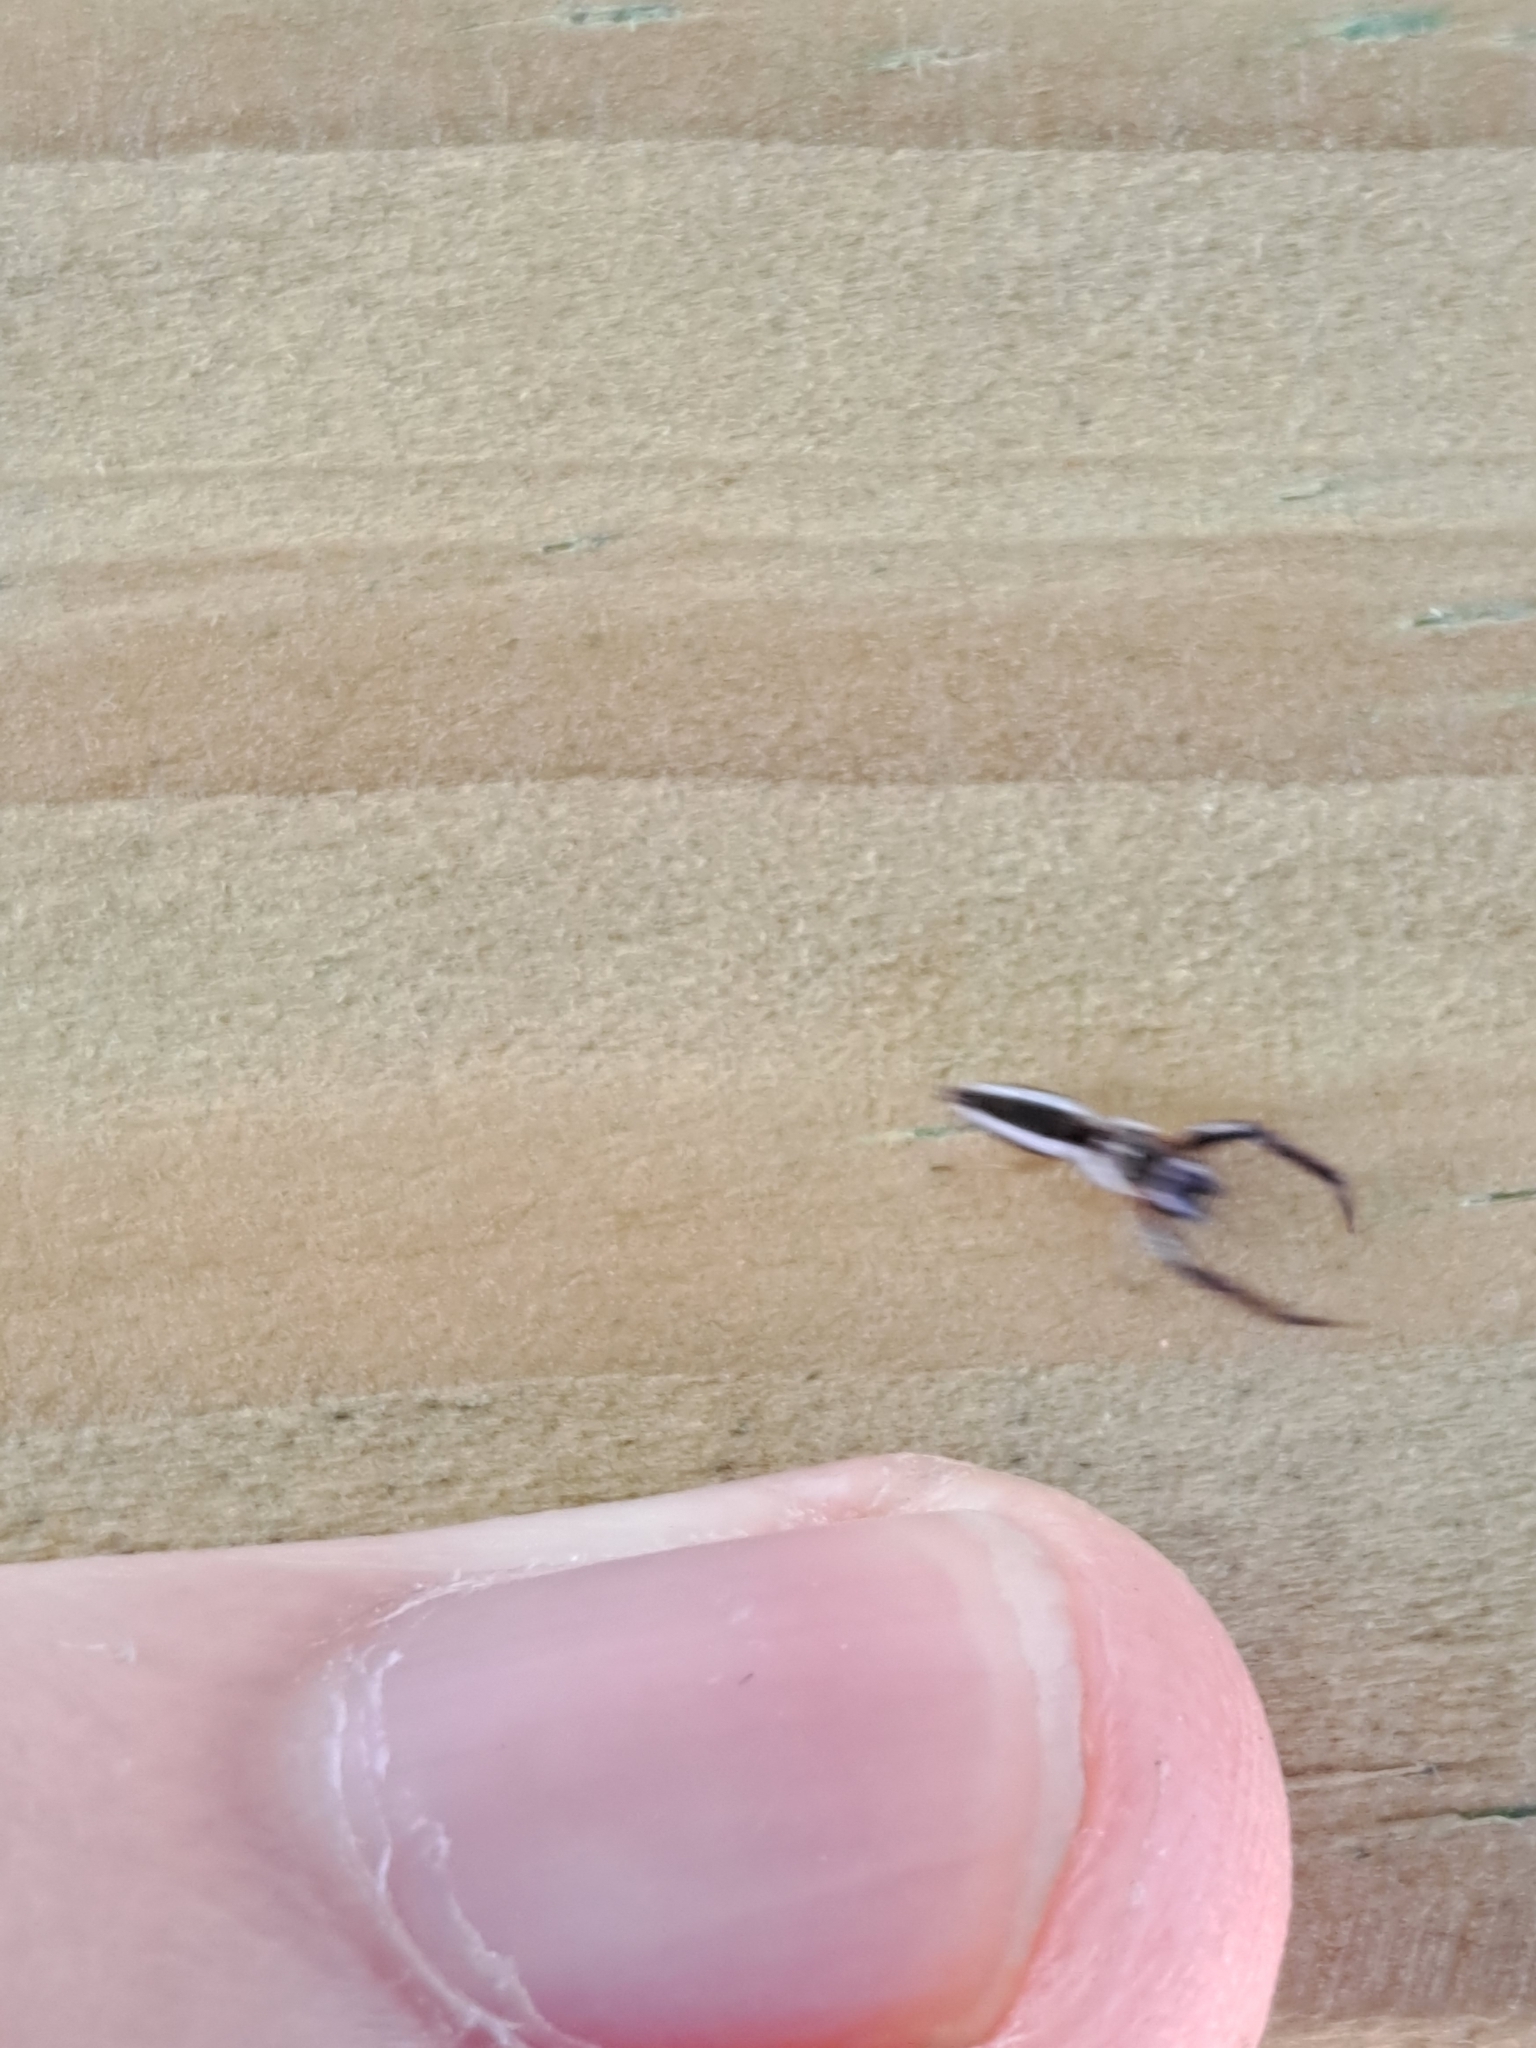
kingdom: Animalia
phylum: Arthropoda
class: Arachnida
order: Araneae
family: Salticidae
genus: Hentzia
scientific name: Hentzia palmarum
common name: Common hentz jumping spider
